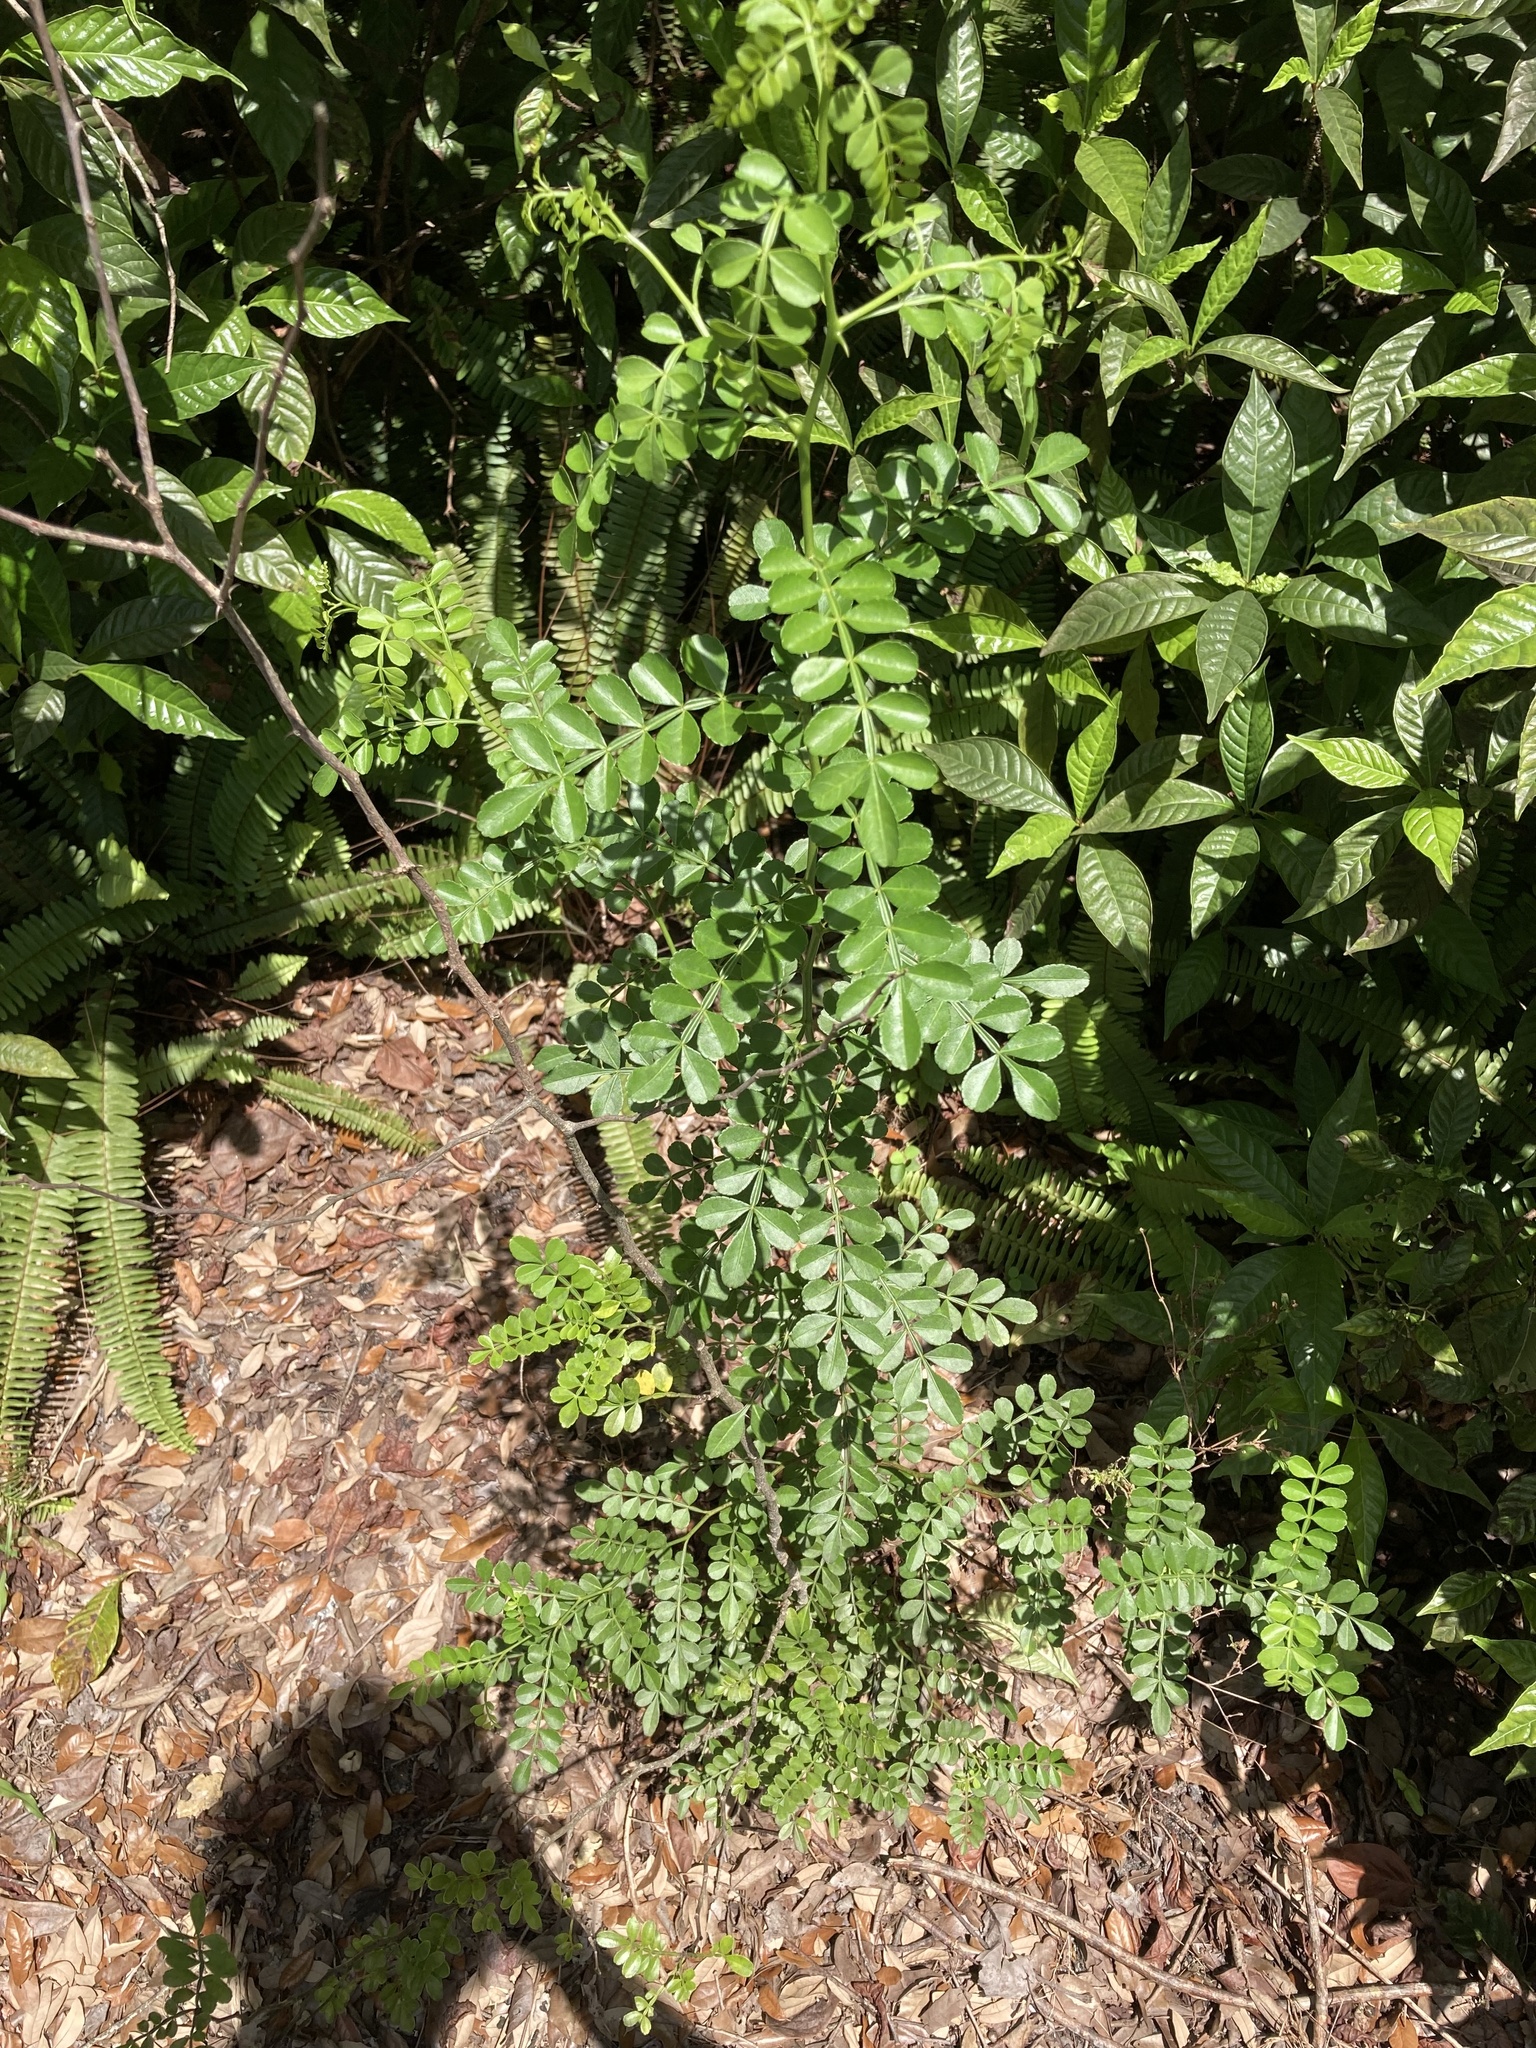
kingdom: Plantae
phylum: Tracheophyta
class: Magnoliopsida
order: Sapindales
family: Rutaceae
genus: Zanthoxylum
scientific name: Zanthoxylum fagara
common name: Lime prickly-ash
